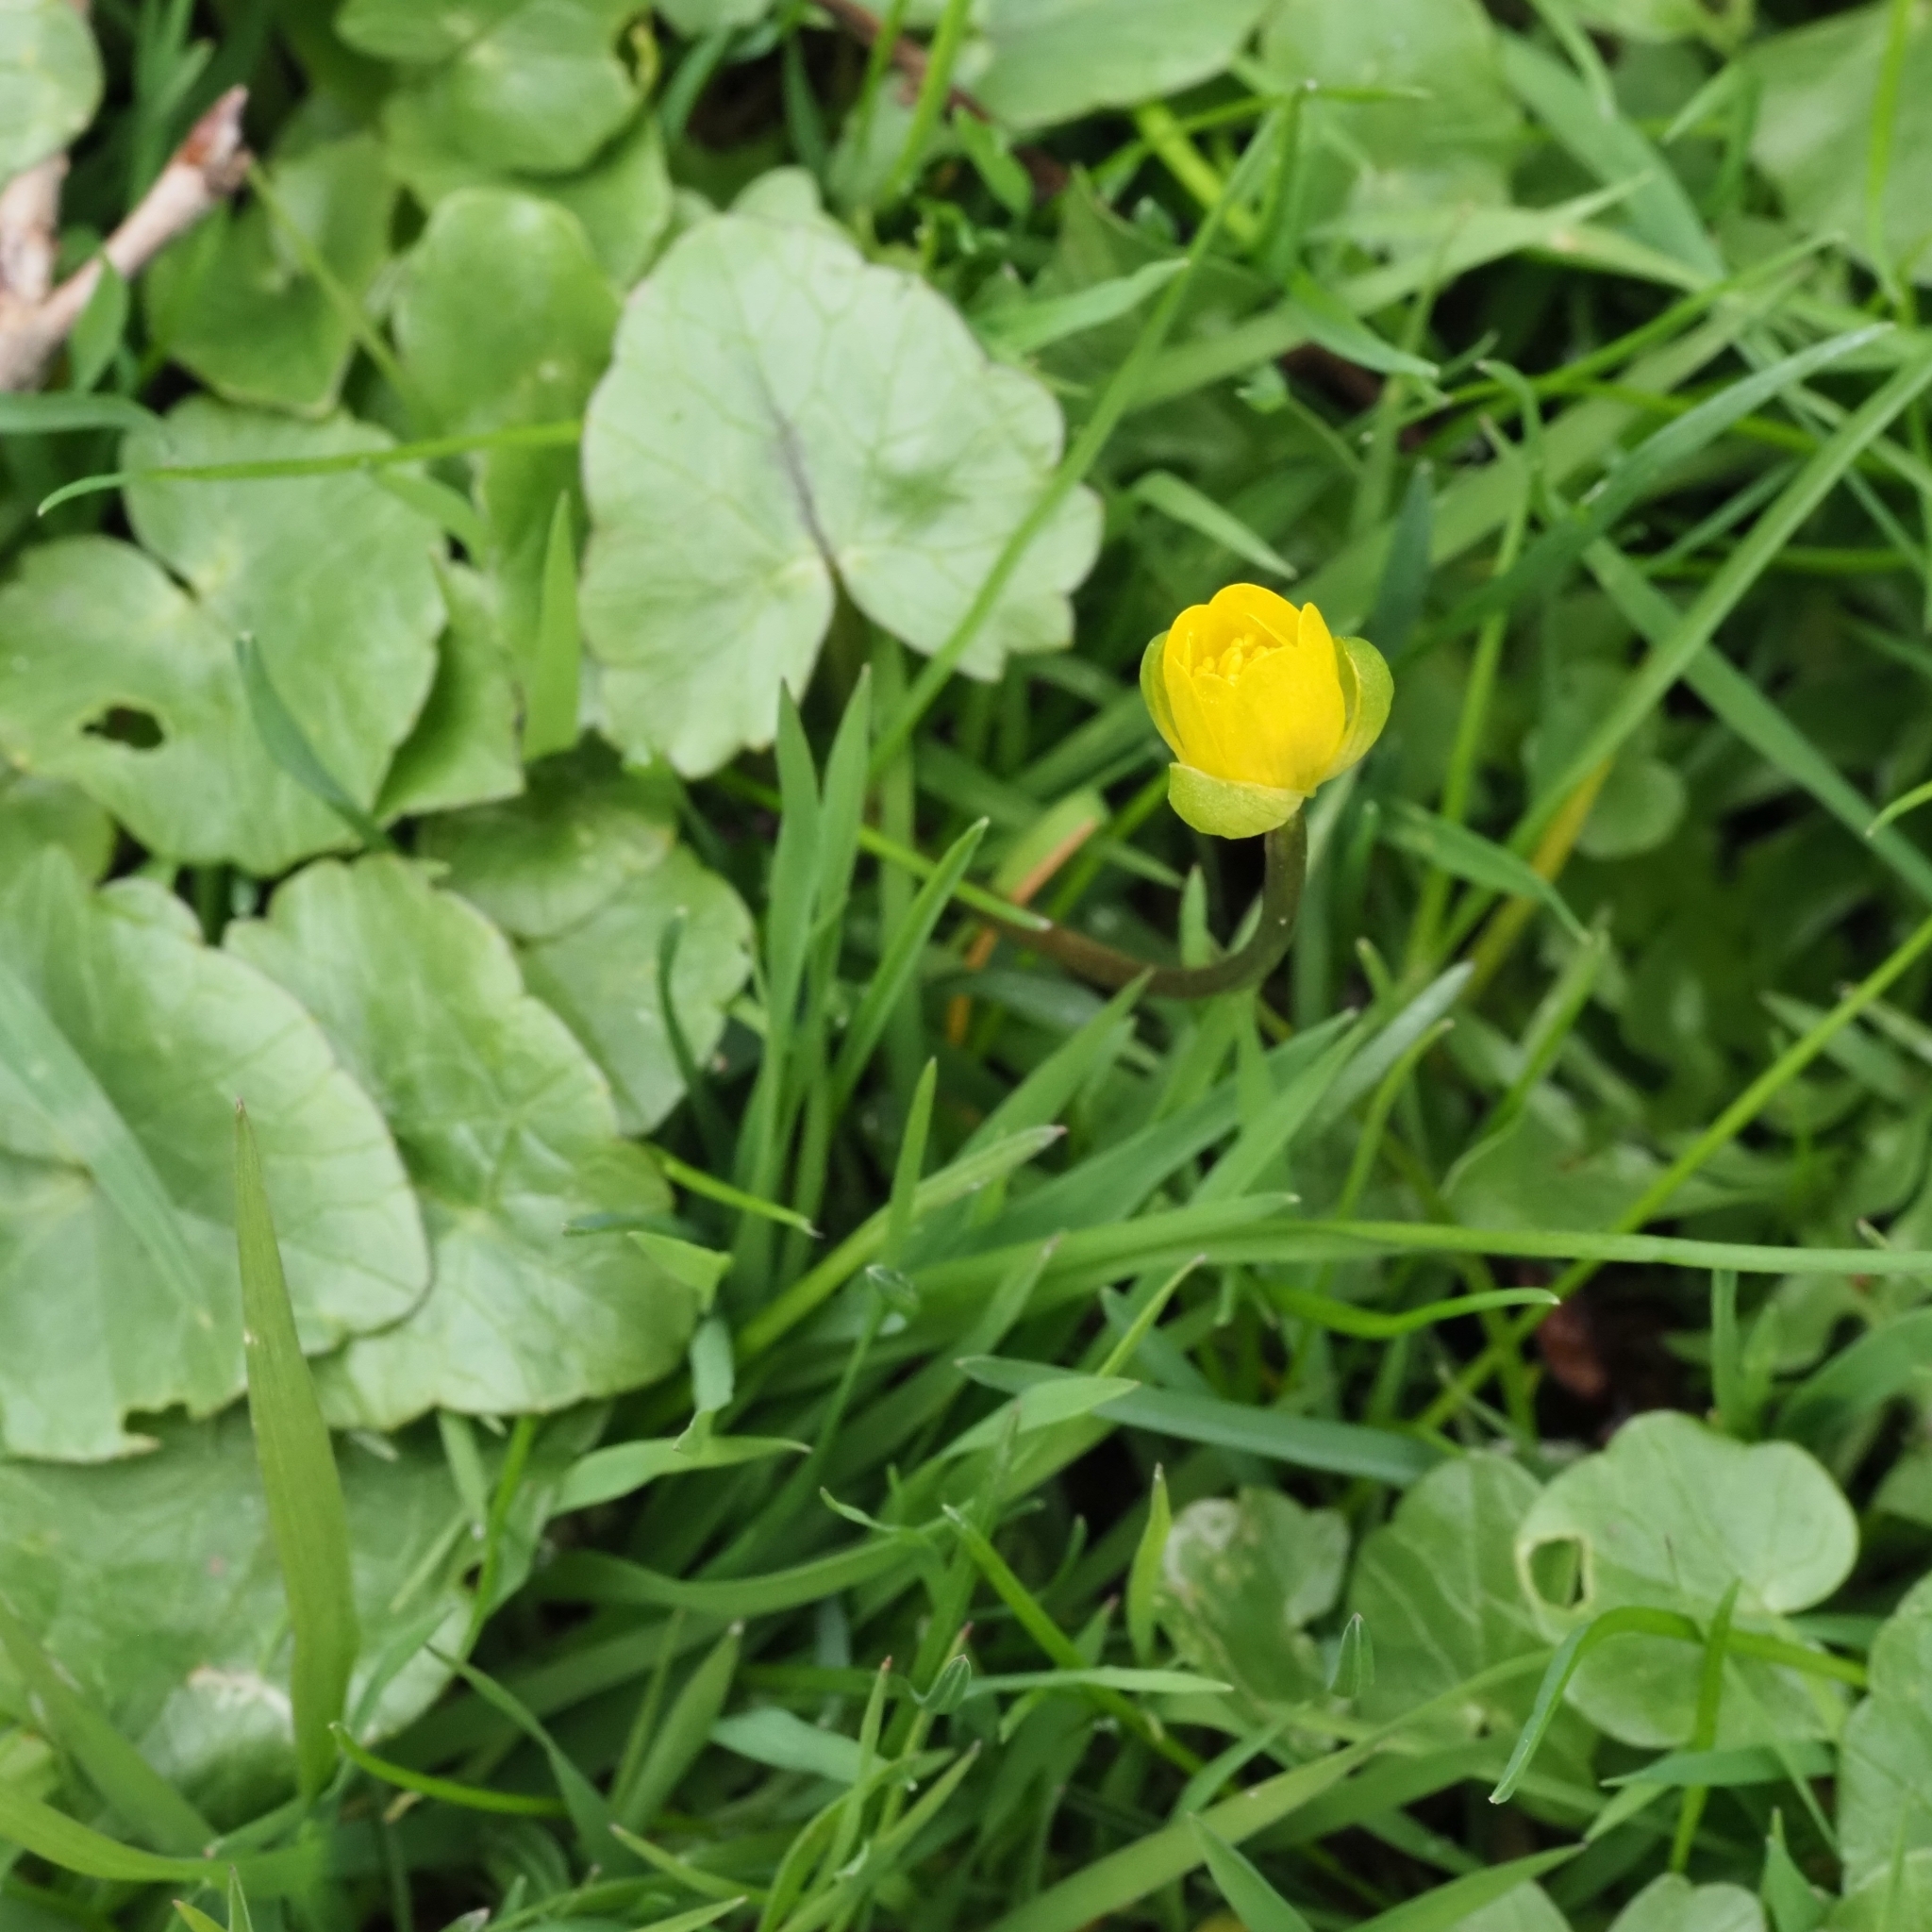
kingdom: Plantae
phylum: Tracheophyta
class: Magnoliopsida
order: Ranunculales
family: Ranunculaceae
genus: Ficaria
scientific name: Ficaria verna
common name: Lesser celandine
